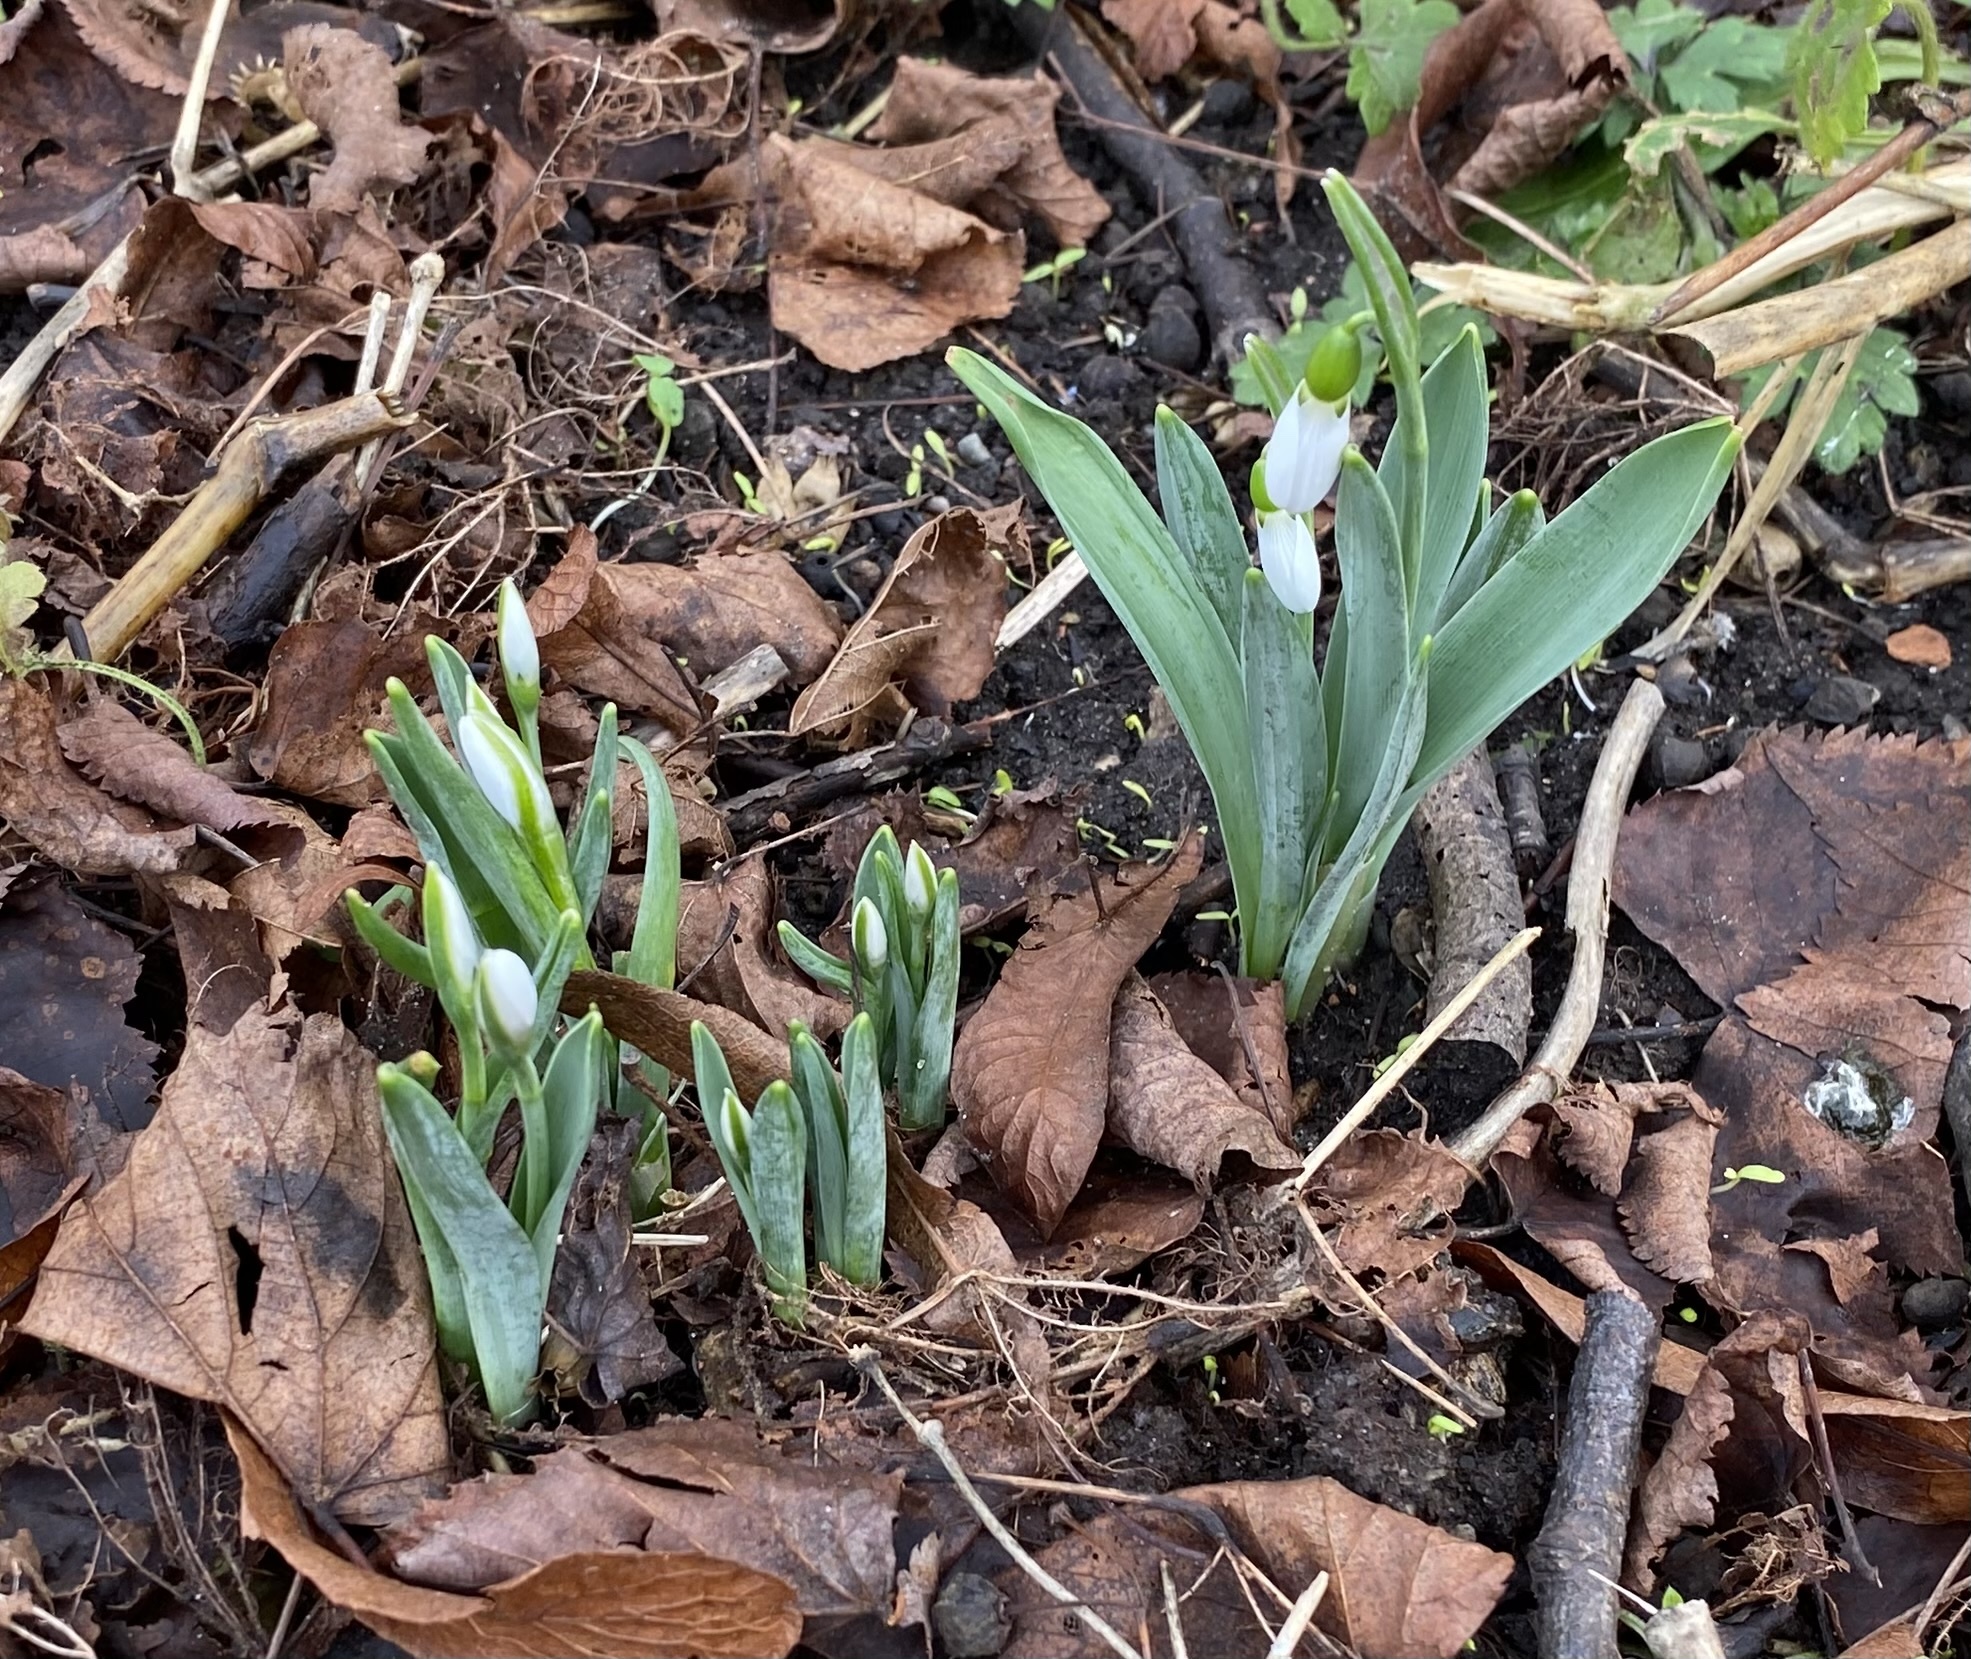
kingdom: Plantae
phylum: Tracheophyta
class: Liliopsida
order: Asparagales
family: Amaryllidaceae
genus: Galanthus
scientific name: Galanthus elwesii
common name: Greater snowdrop
